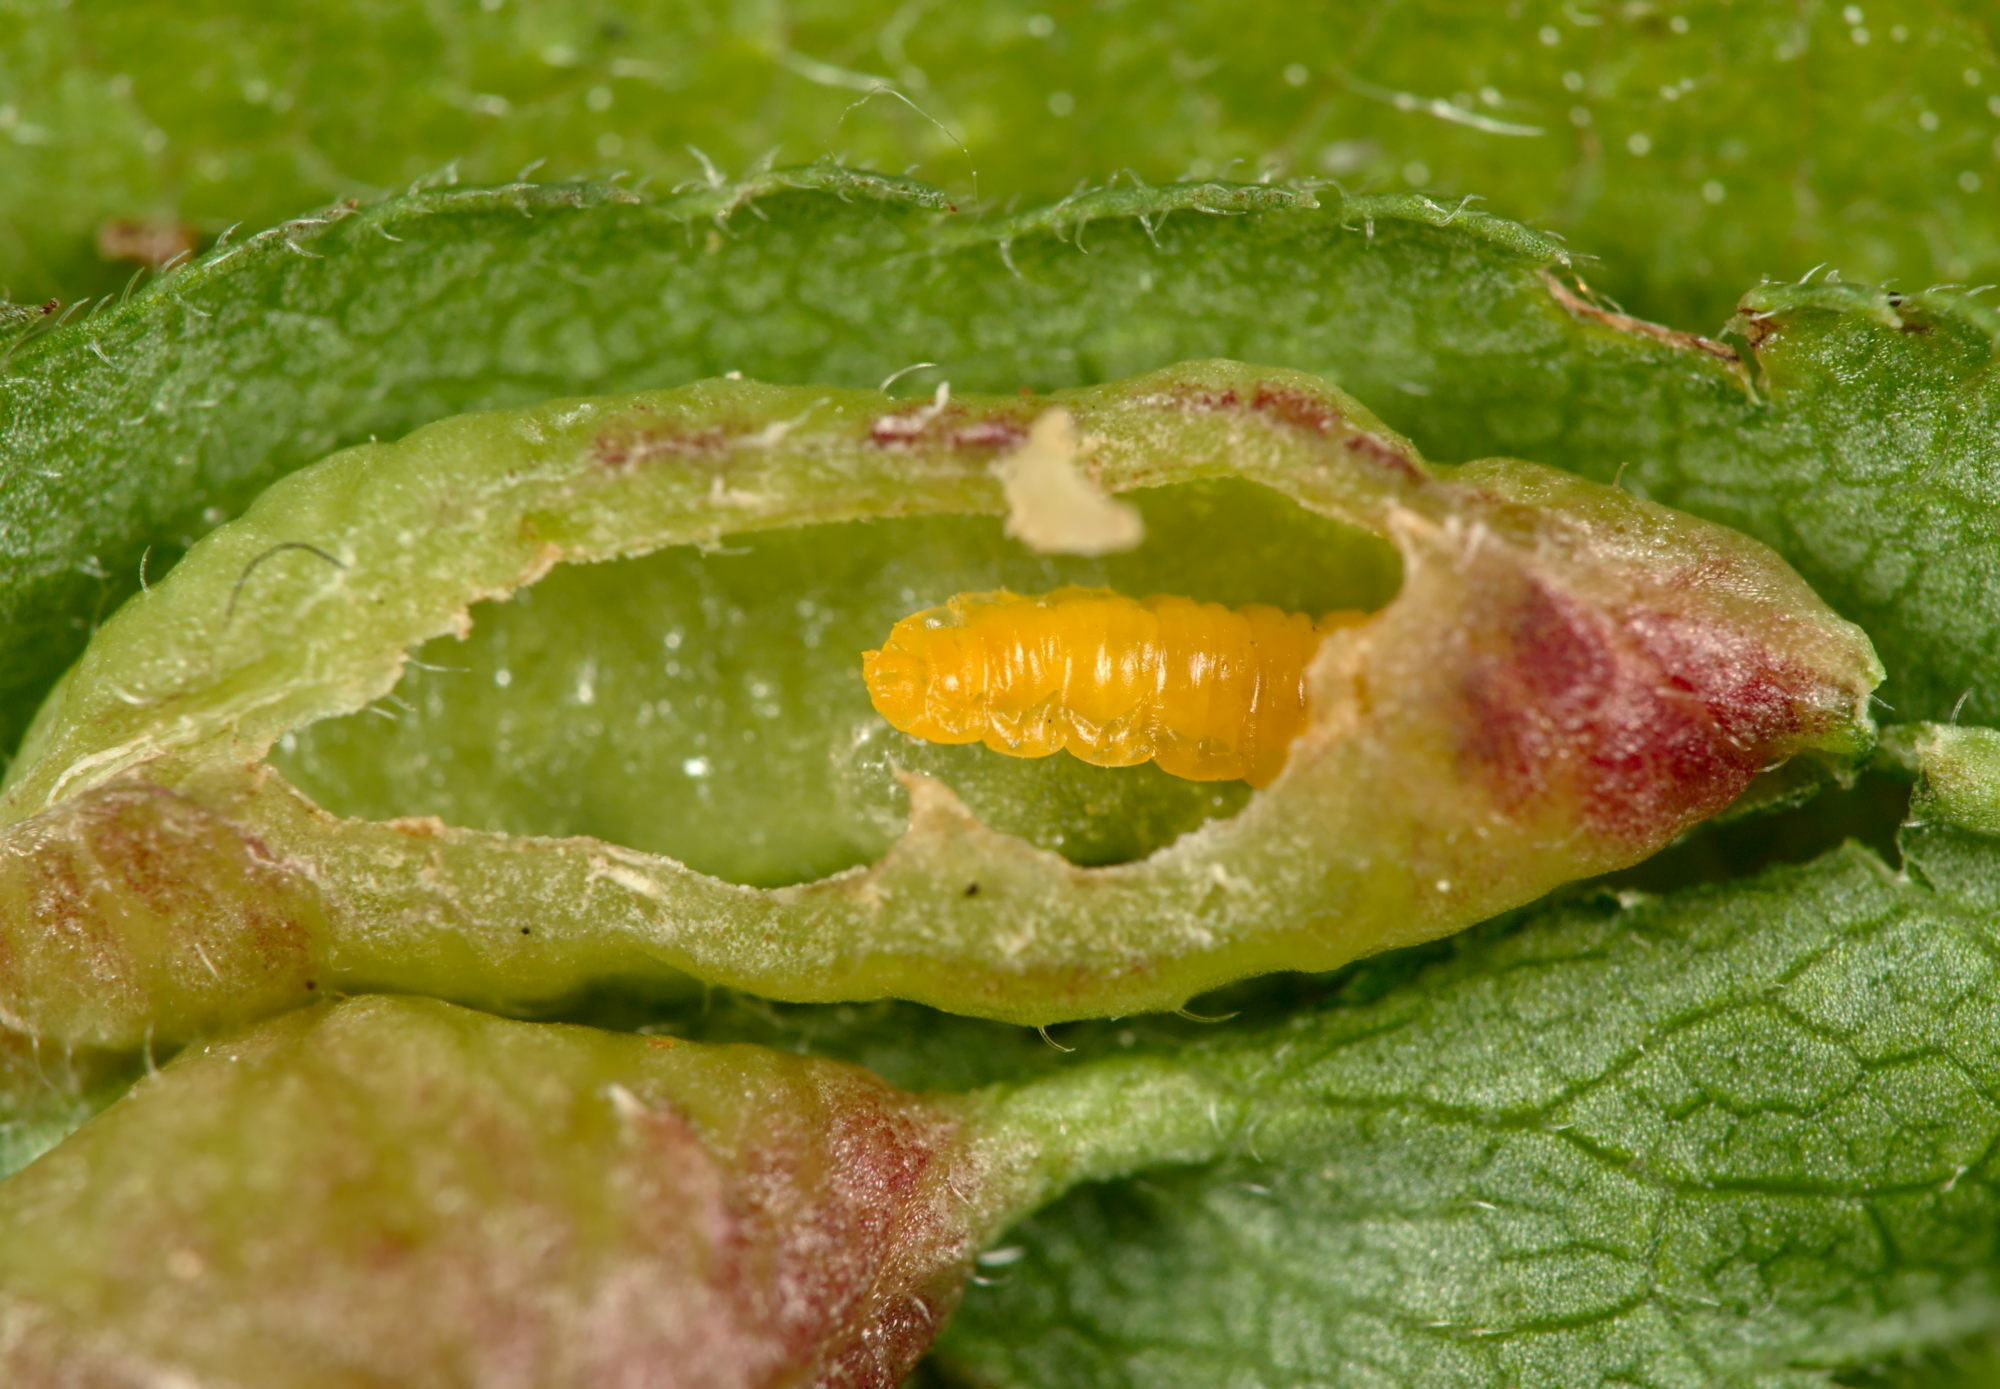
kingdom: Animalia
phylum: Arthropoda
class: Insecta
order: Diptera
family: Cecidomyiidae
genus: Putoniella
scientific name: Putoniella pruni
